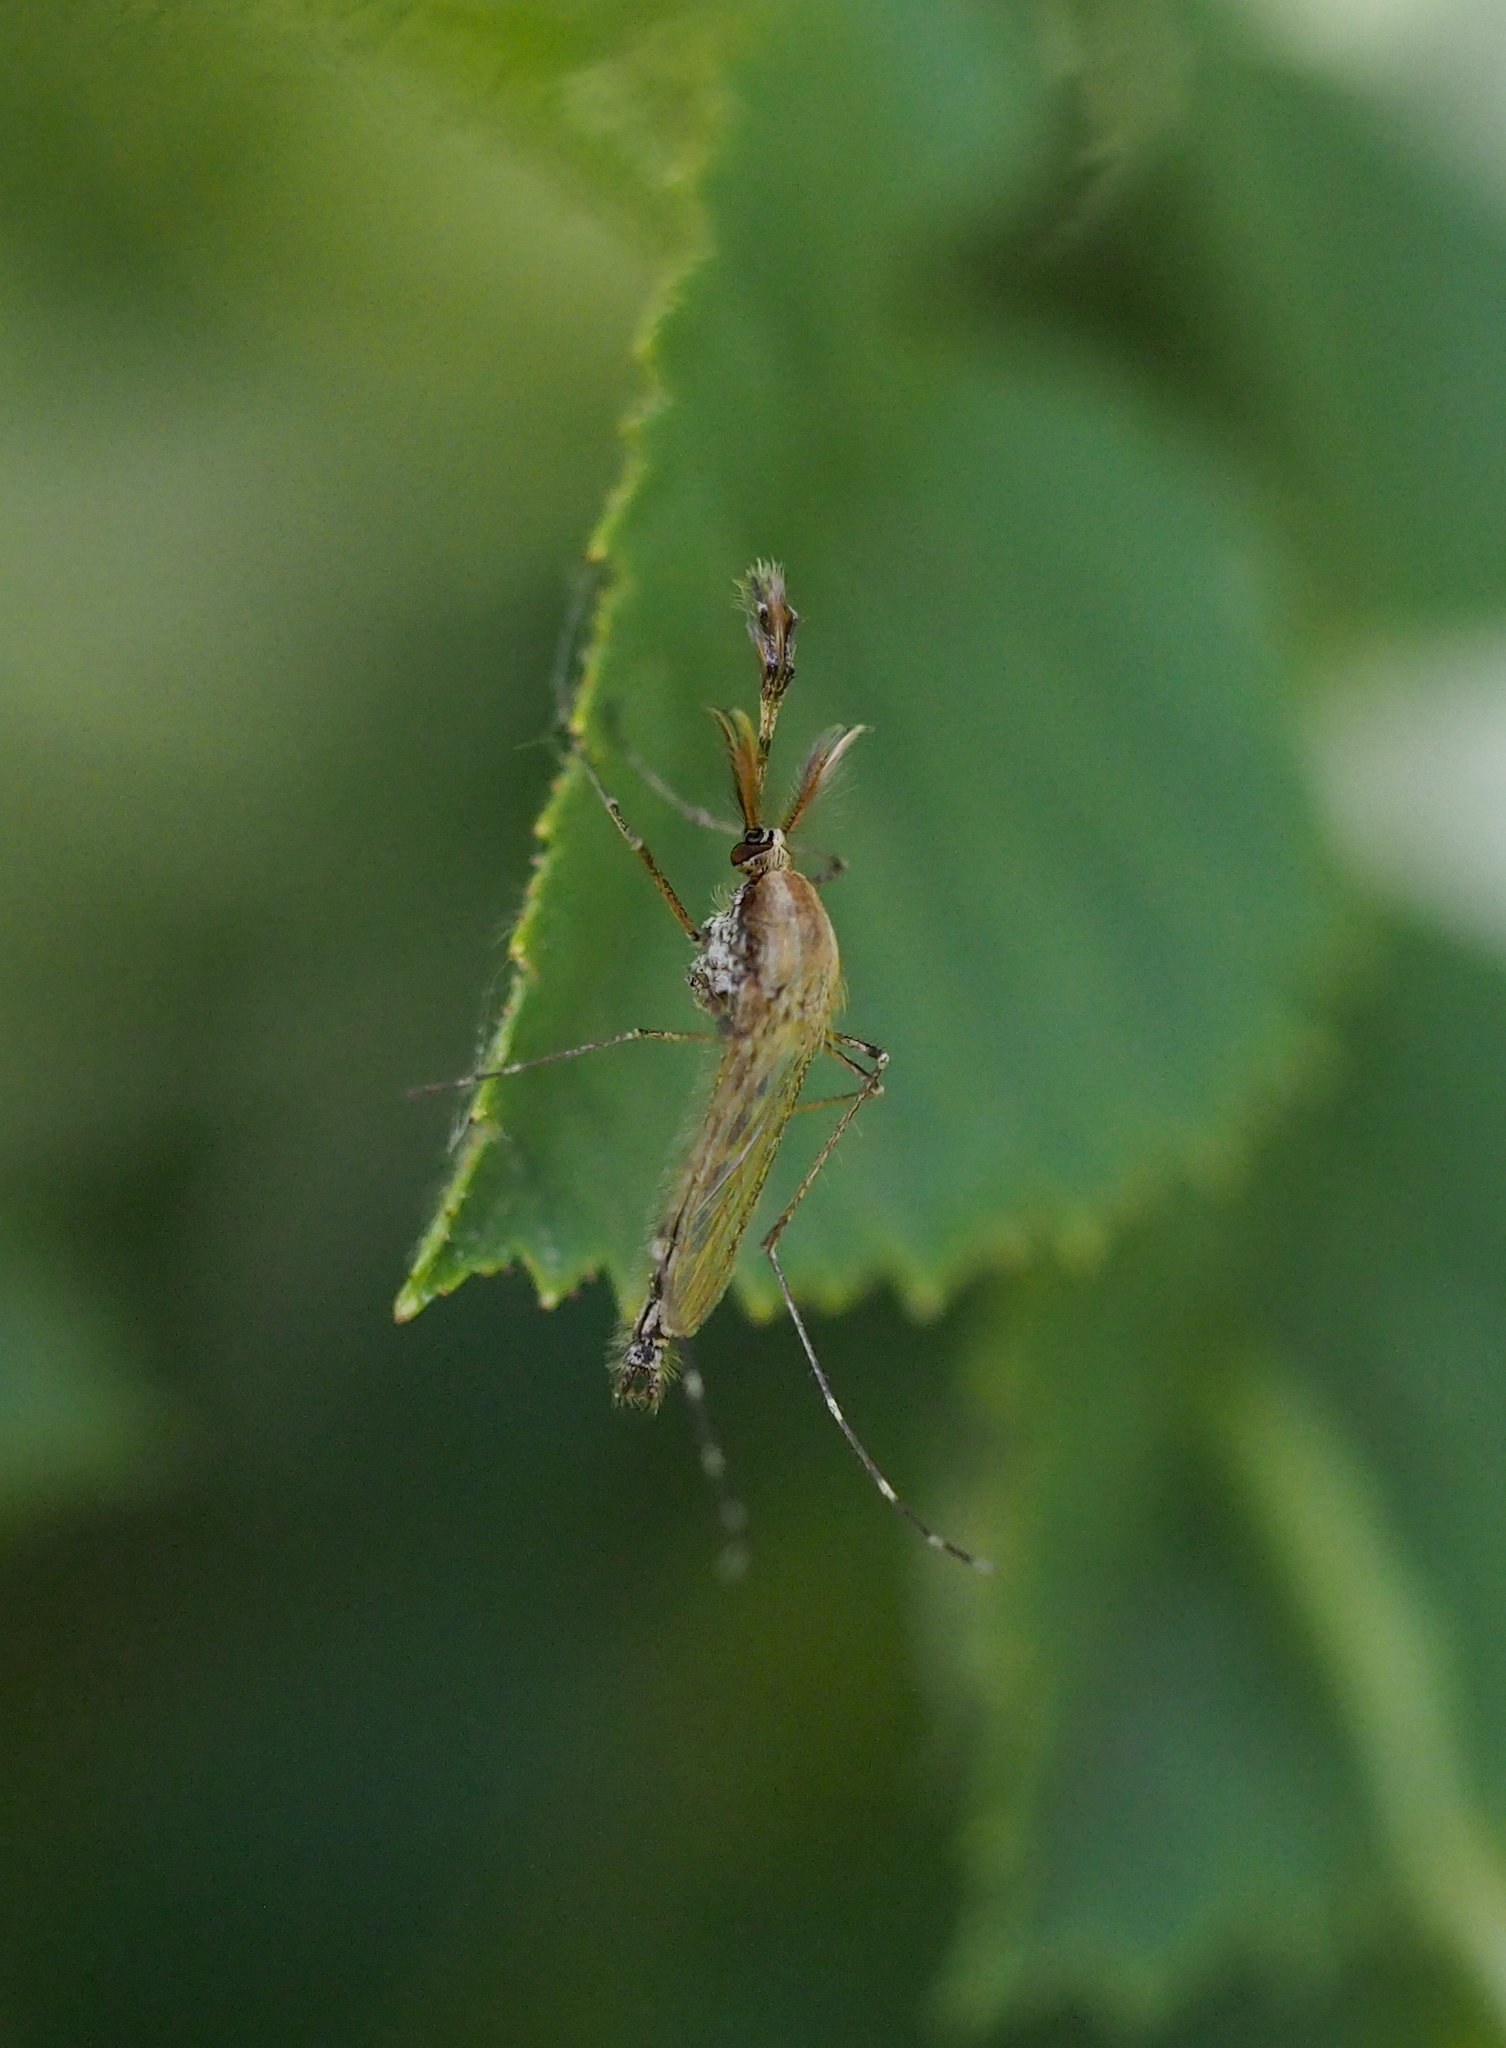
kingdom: Animalia
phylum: Arthropoda
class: Insecta
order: Diptera
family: Culicidae
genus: Aedes
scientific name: Aedes caspius
